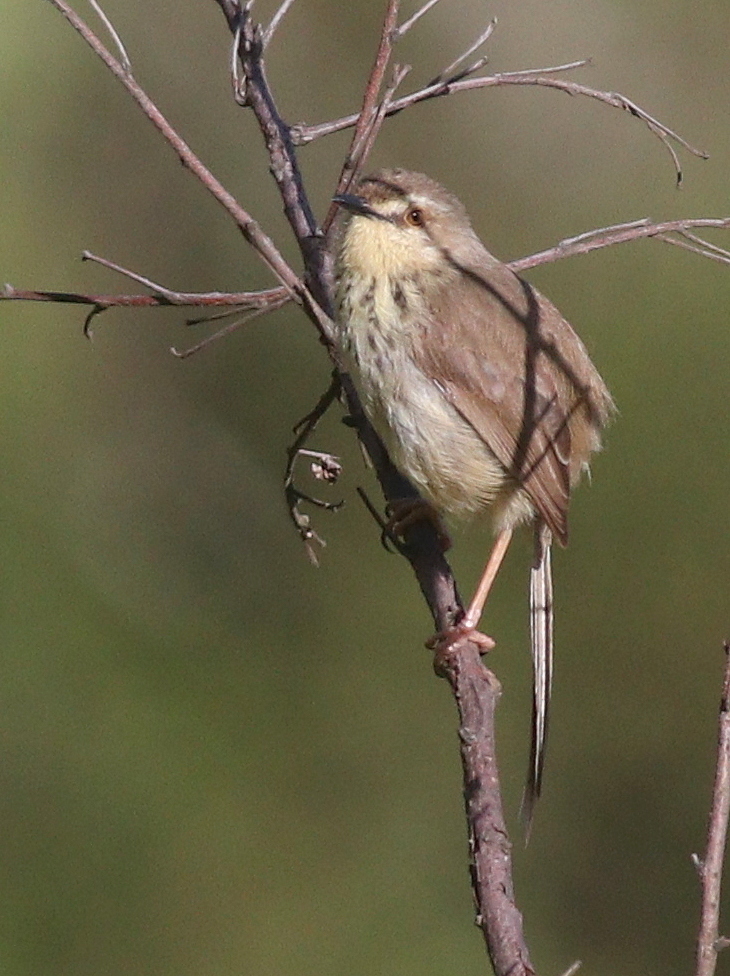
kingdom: Animalia
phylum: Chordata
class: Aves
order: Passeriformes
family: Cisticolidae
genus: Prinia
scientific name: Prinia hypoxantha
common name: Drakensberg prinia
